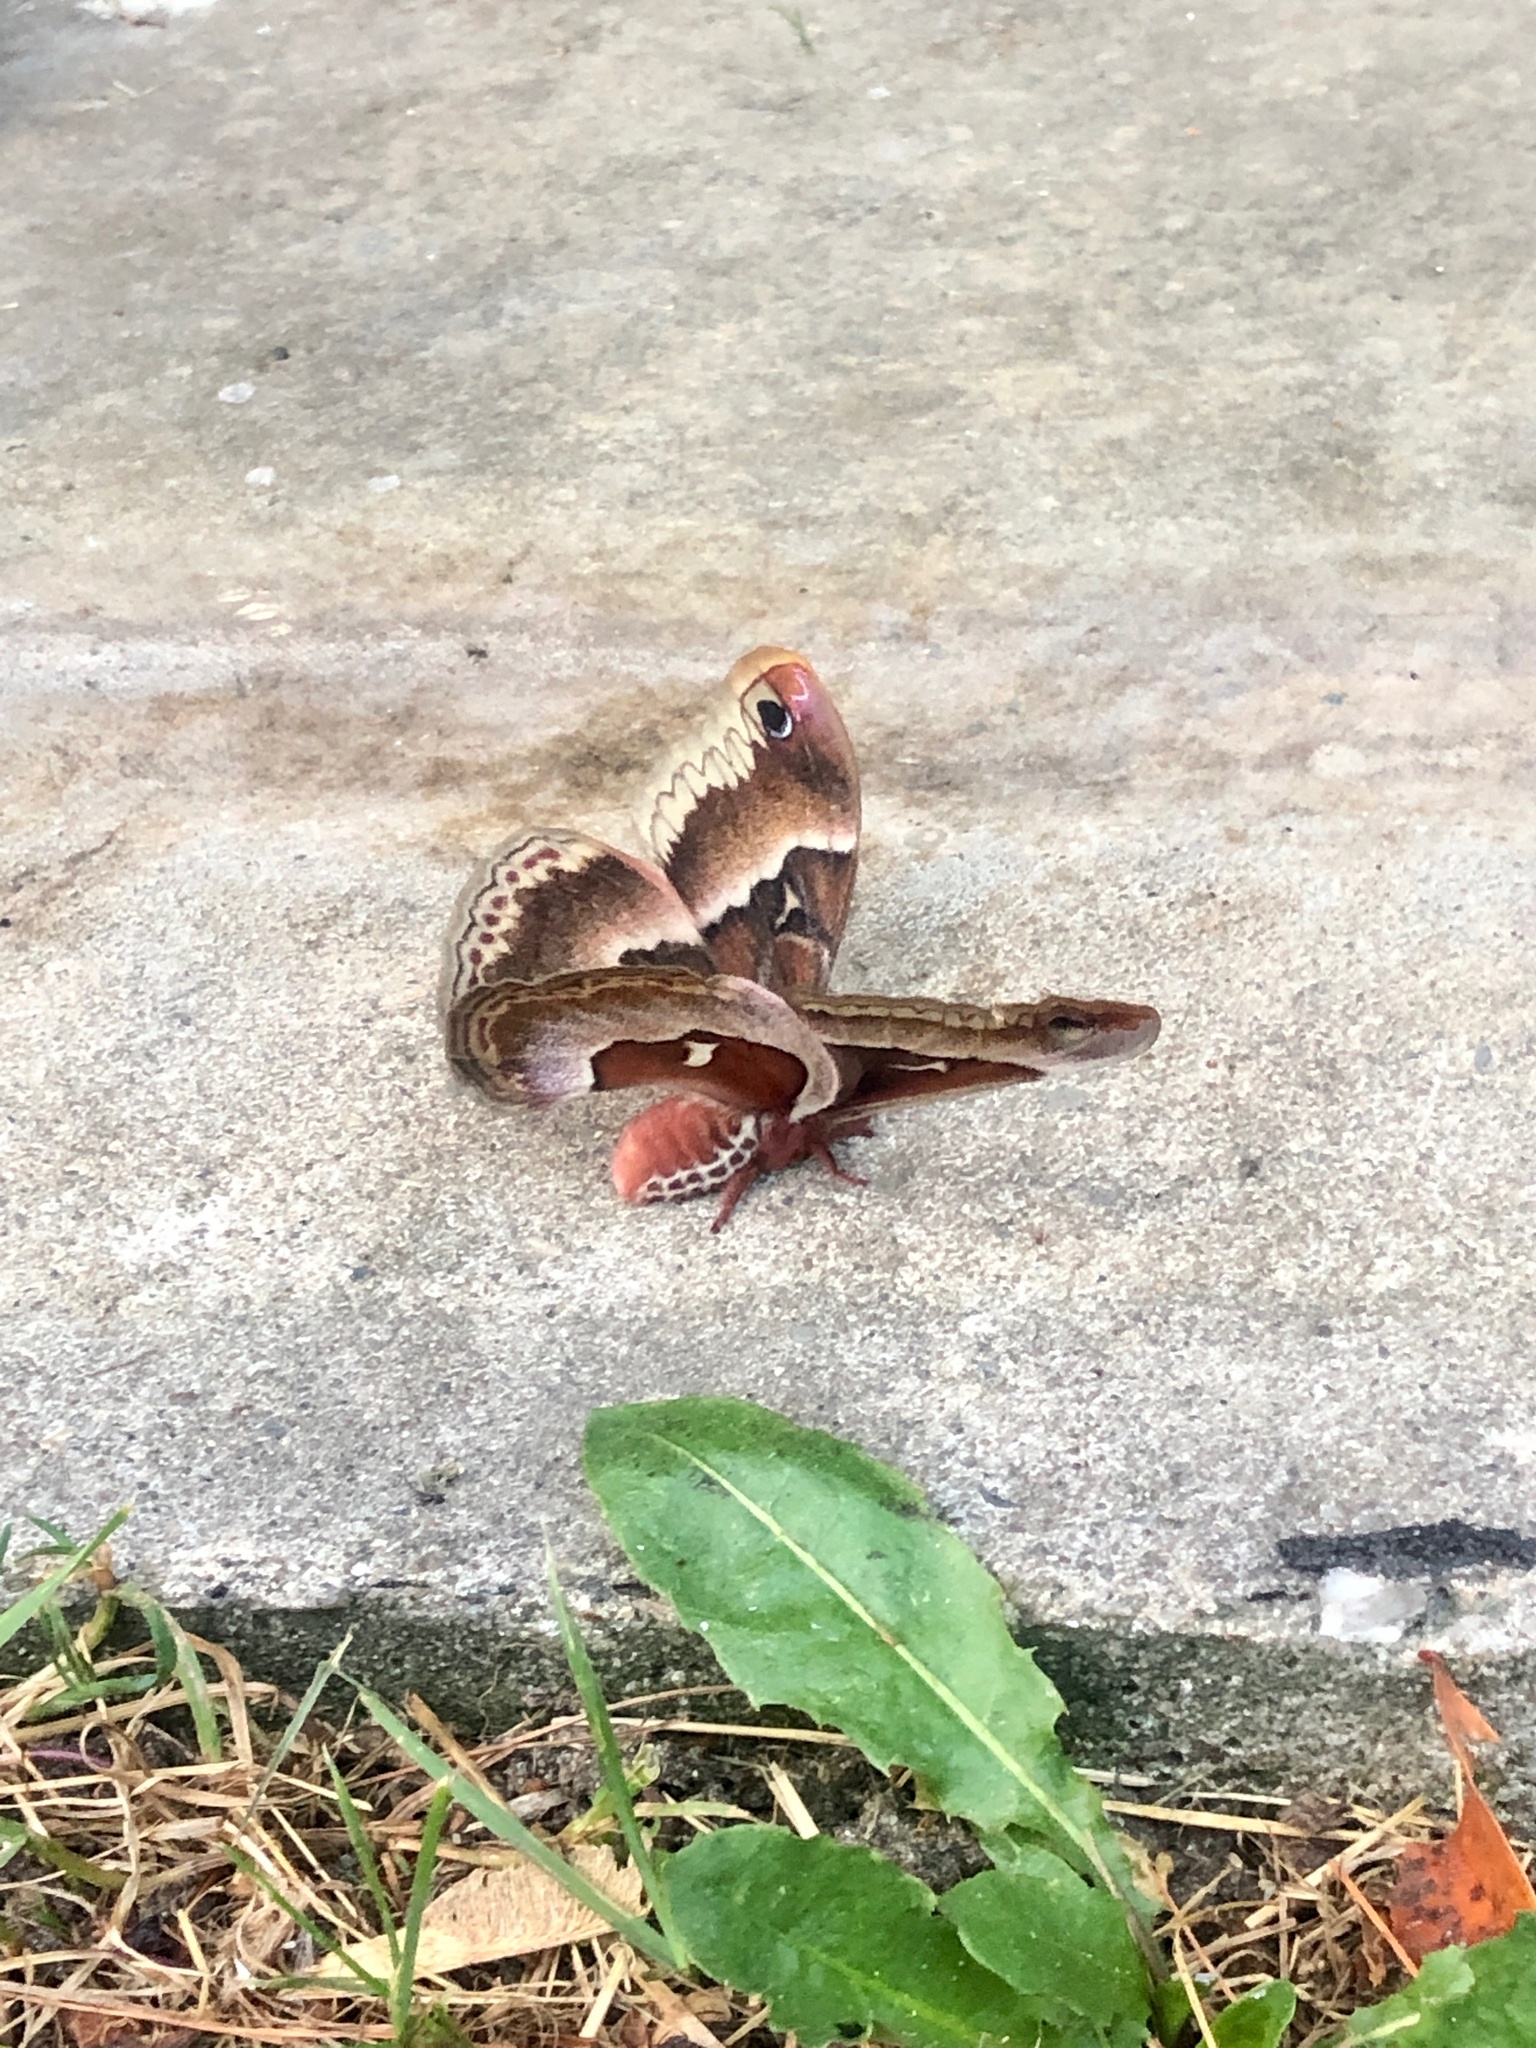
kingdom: Animalia
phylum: Arthropoda
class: Insecta
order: Lepidoptera
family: Saturniidae
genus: Callosamia
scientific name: Callosamia promethea
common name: Promethea silkmoth
